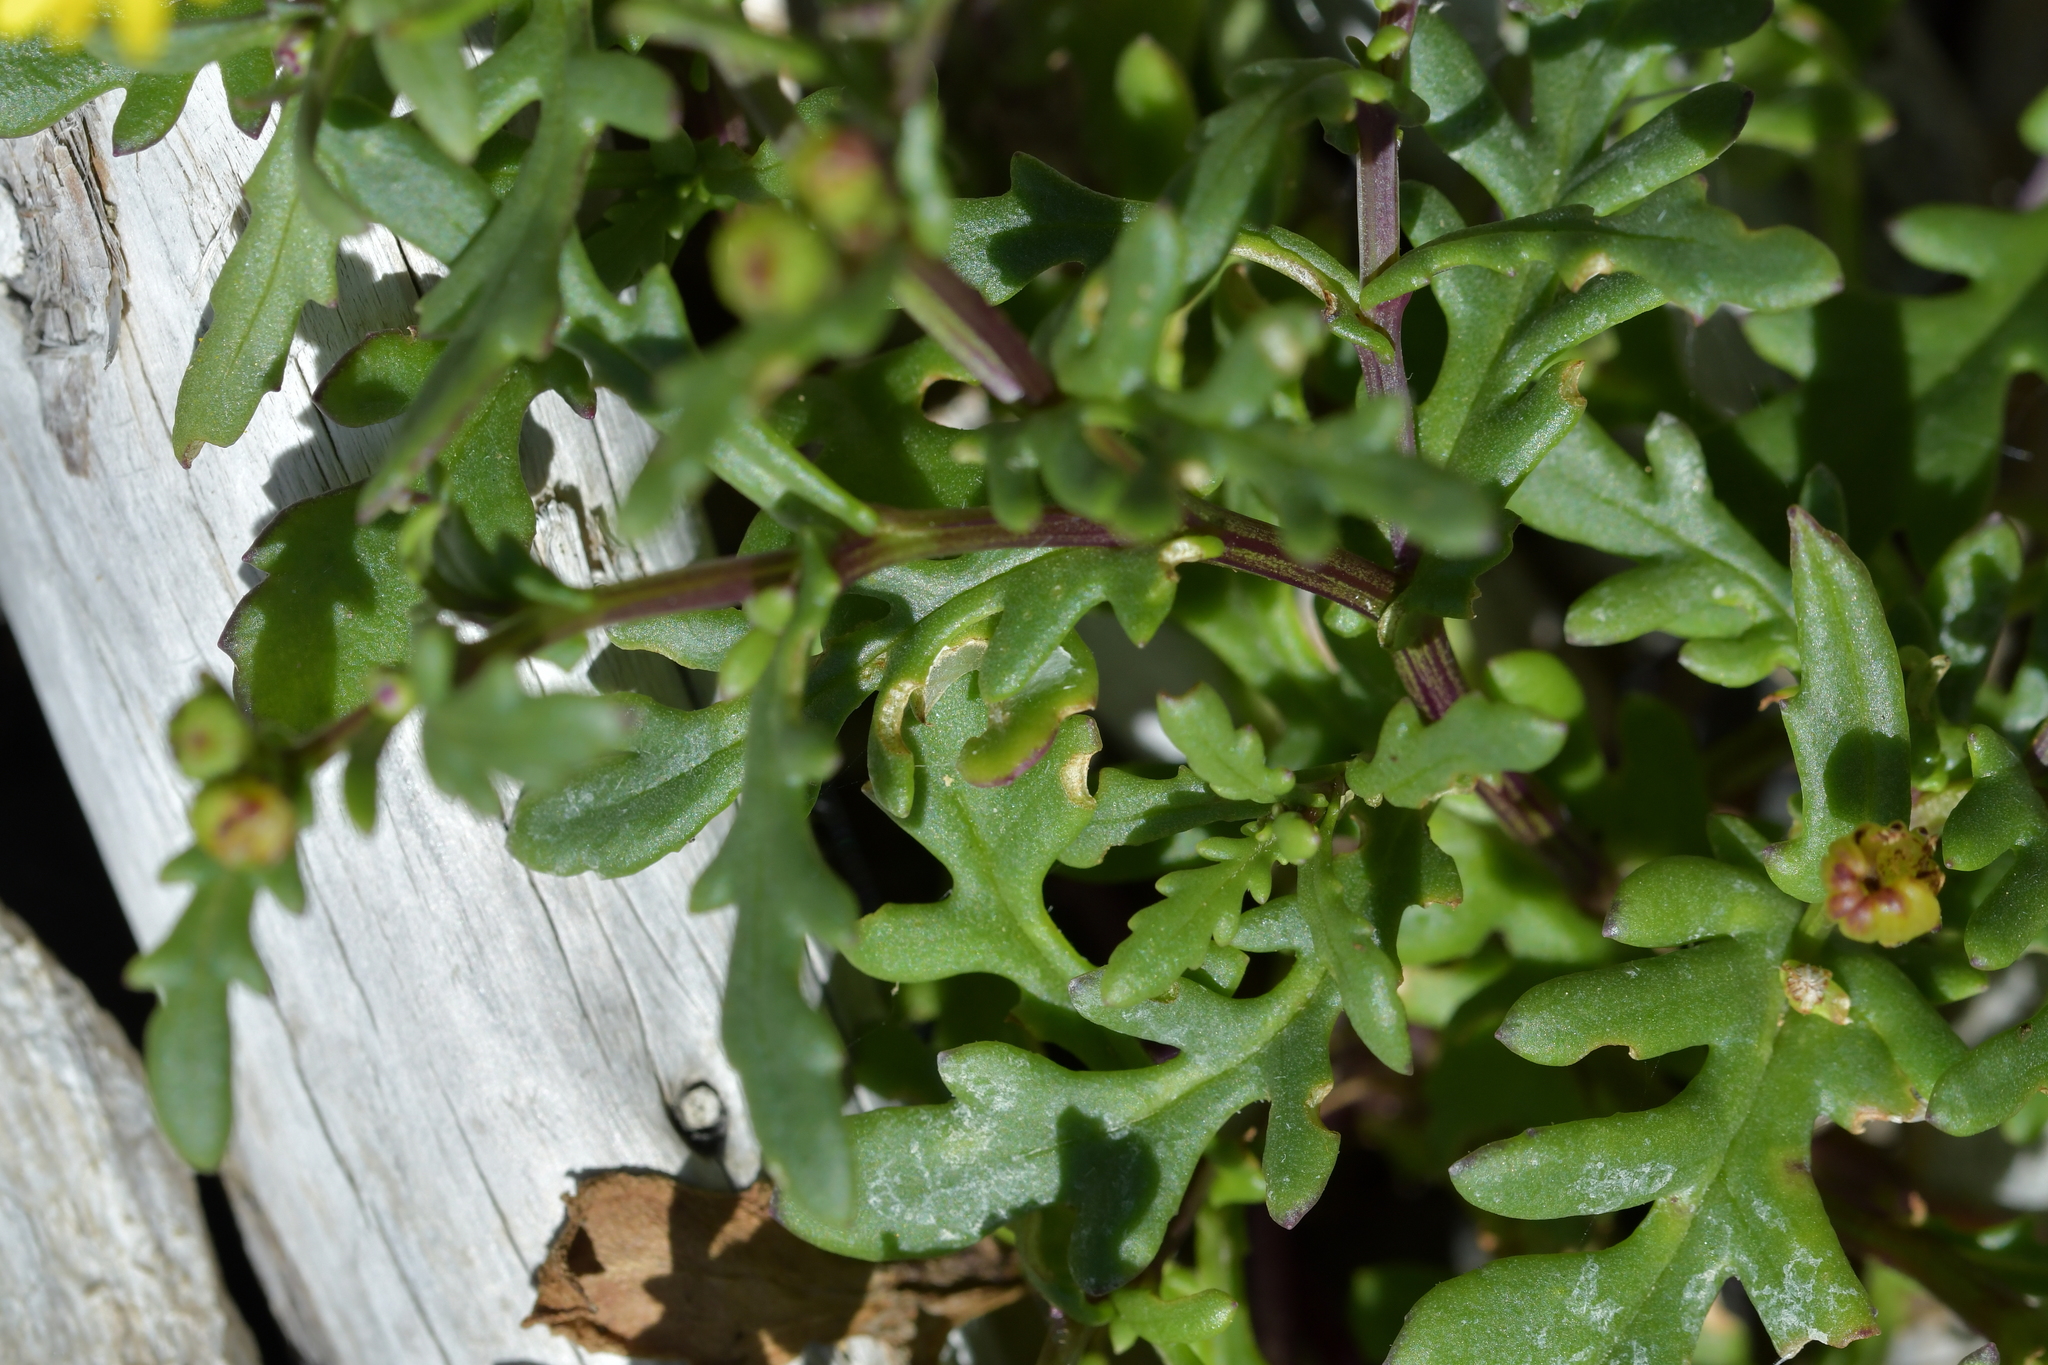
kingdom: Plantae
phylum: Tracheophyta
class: Magnoliopsida
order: Asterales
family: Asteraceae
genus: Senecio
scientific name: Senecio lautus
